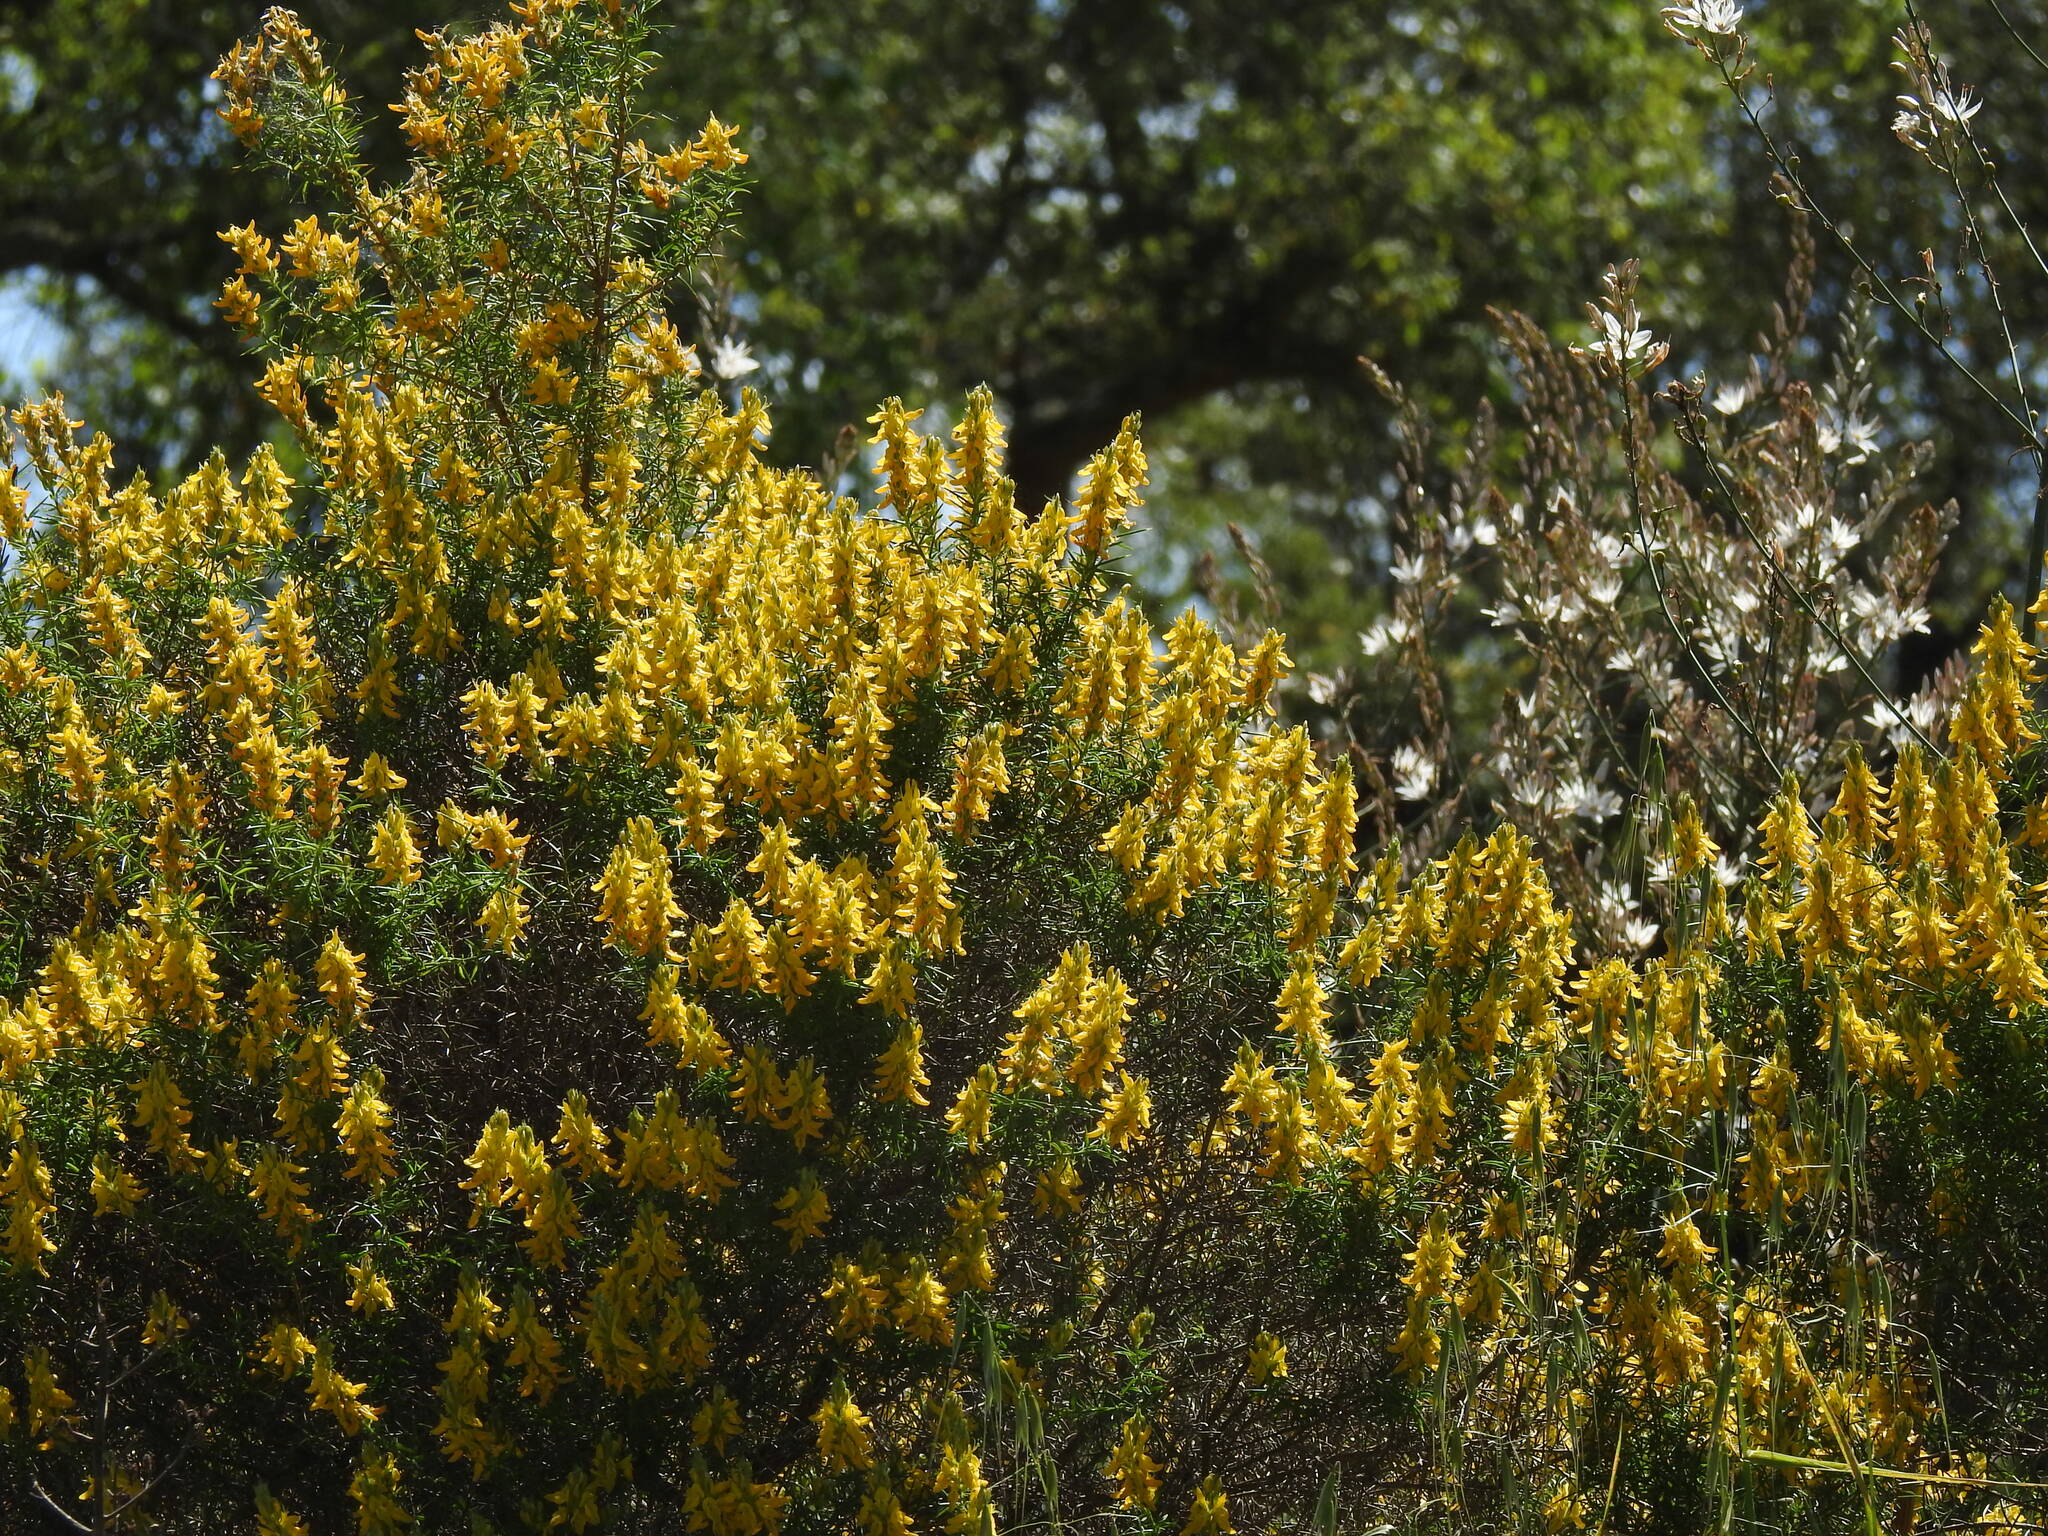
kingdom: Plantae
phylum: Tracheophyta
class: Magnoliopsida
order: Fabales
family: Fabaceae
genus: Genista
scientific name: Genista hirsuta
